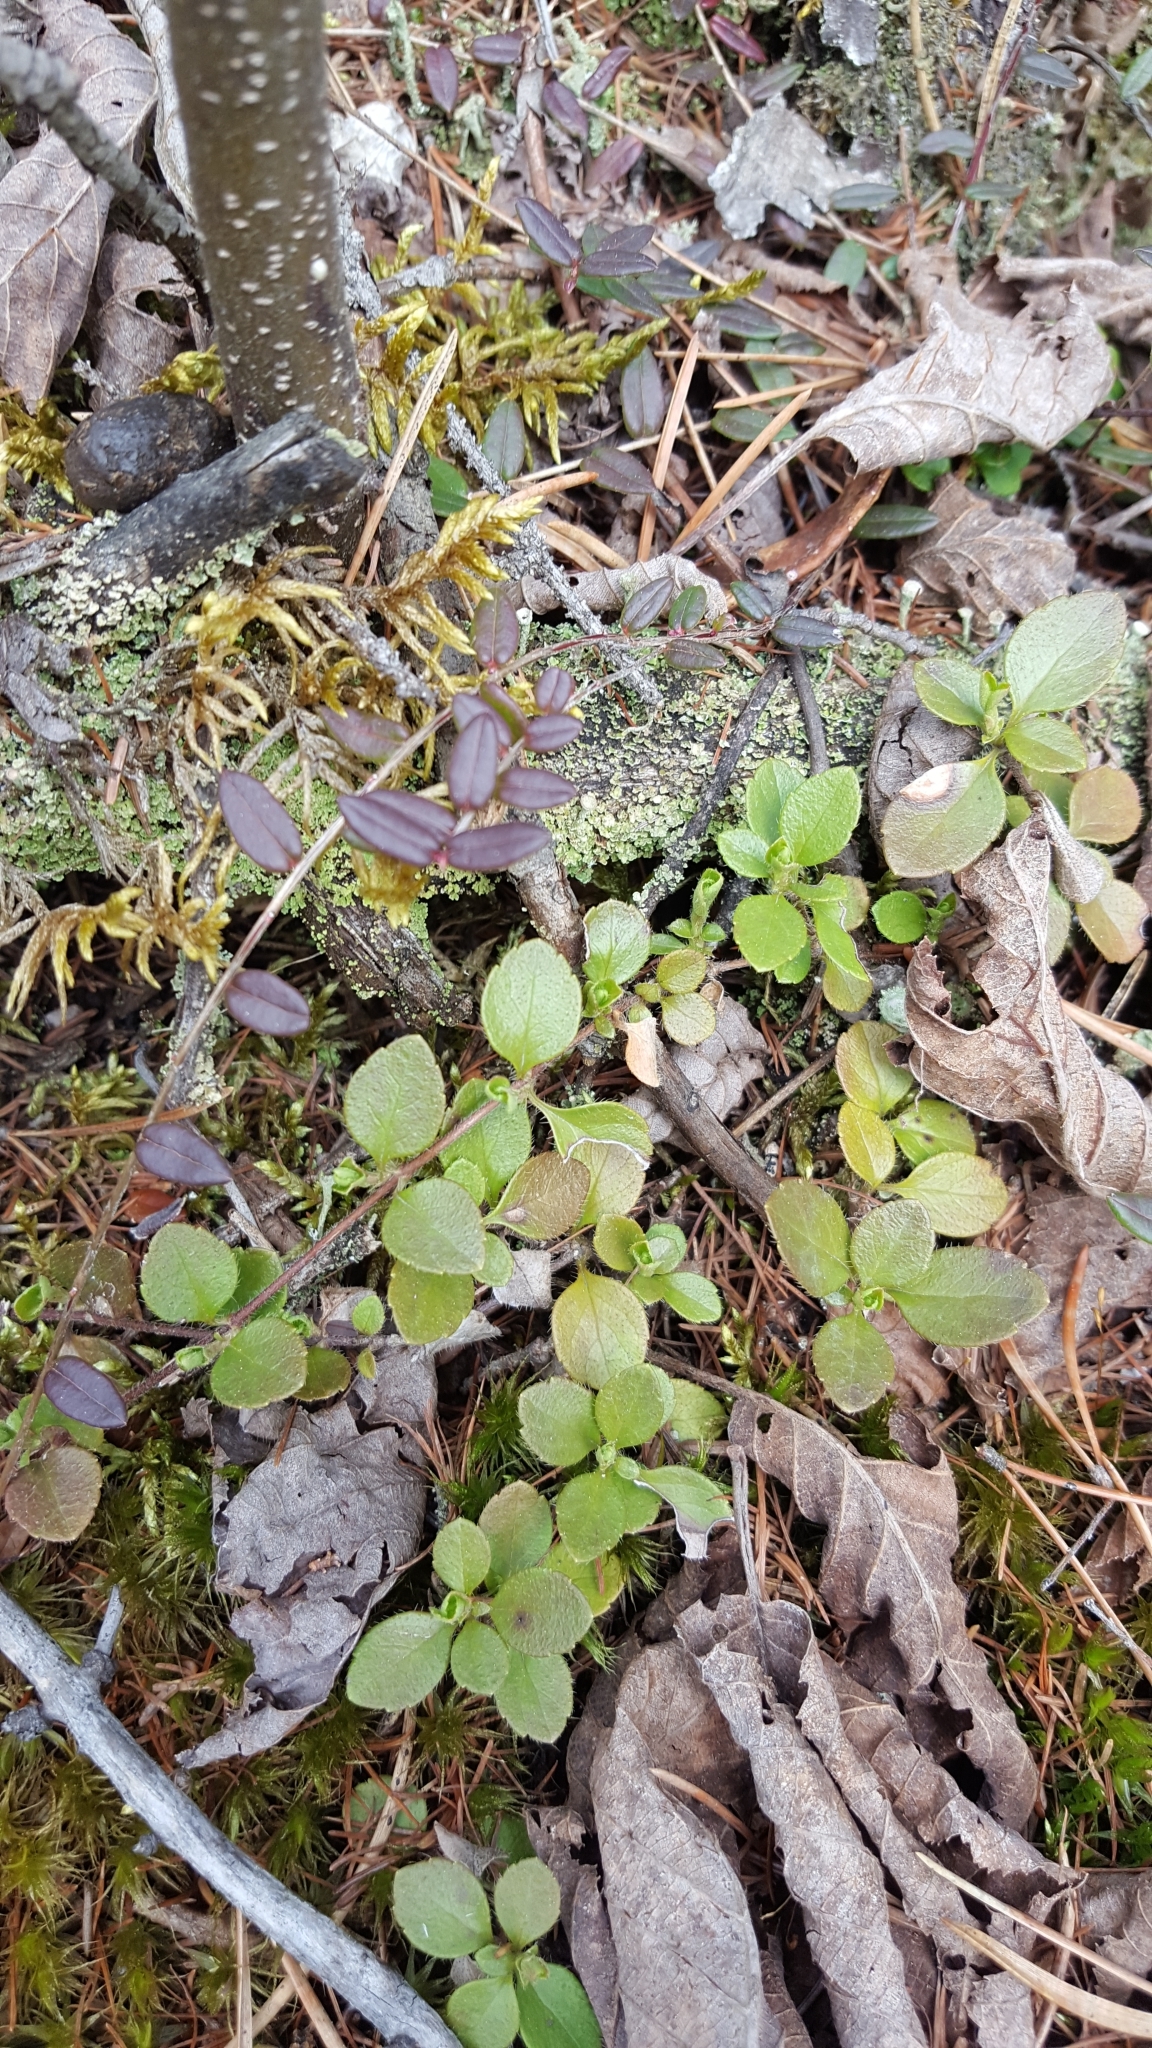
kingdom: Plantae
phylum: Tracheophyta
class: Magnoliopsida
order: Dipsacales
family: Caprifoliaceae
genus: Linnaea
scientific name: Linnaea borealis
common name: Twinflower
